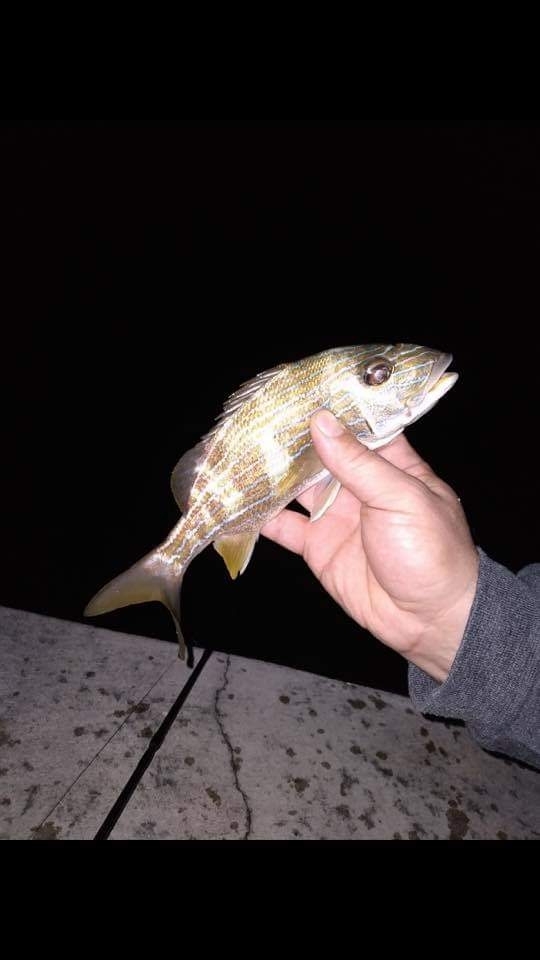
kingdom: Animalia
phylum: Chordata
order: Perciformes
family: Haemulidae
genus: Haemulon
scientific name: Haemulon sciurus
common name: Bluestriped grunt
